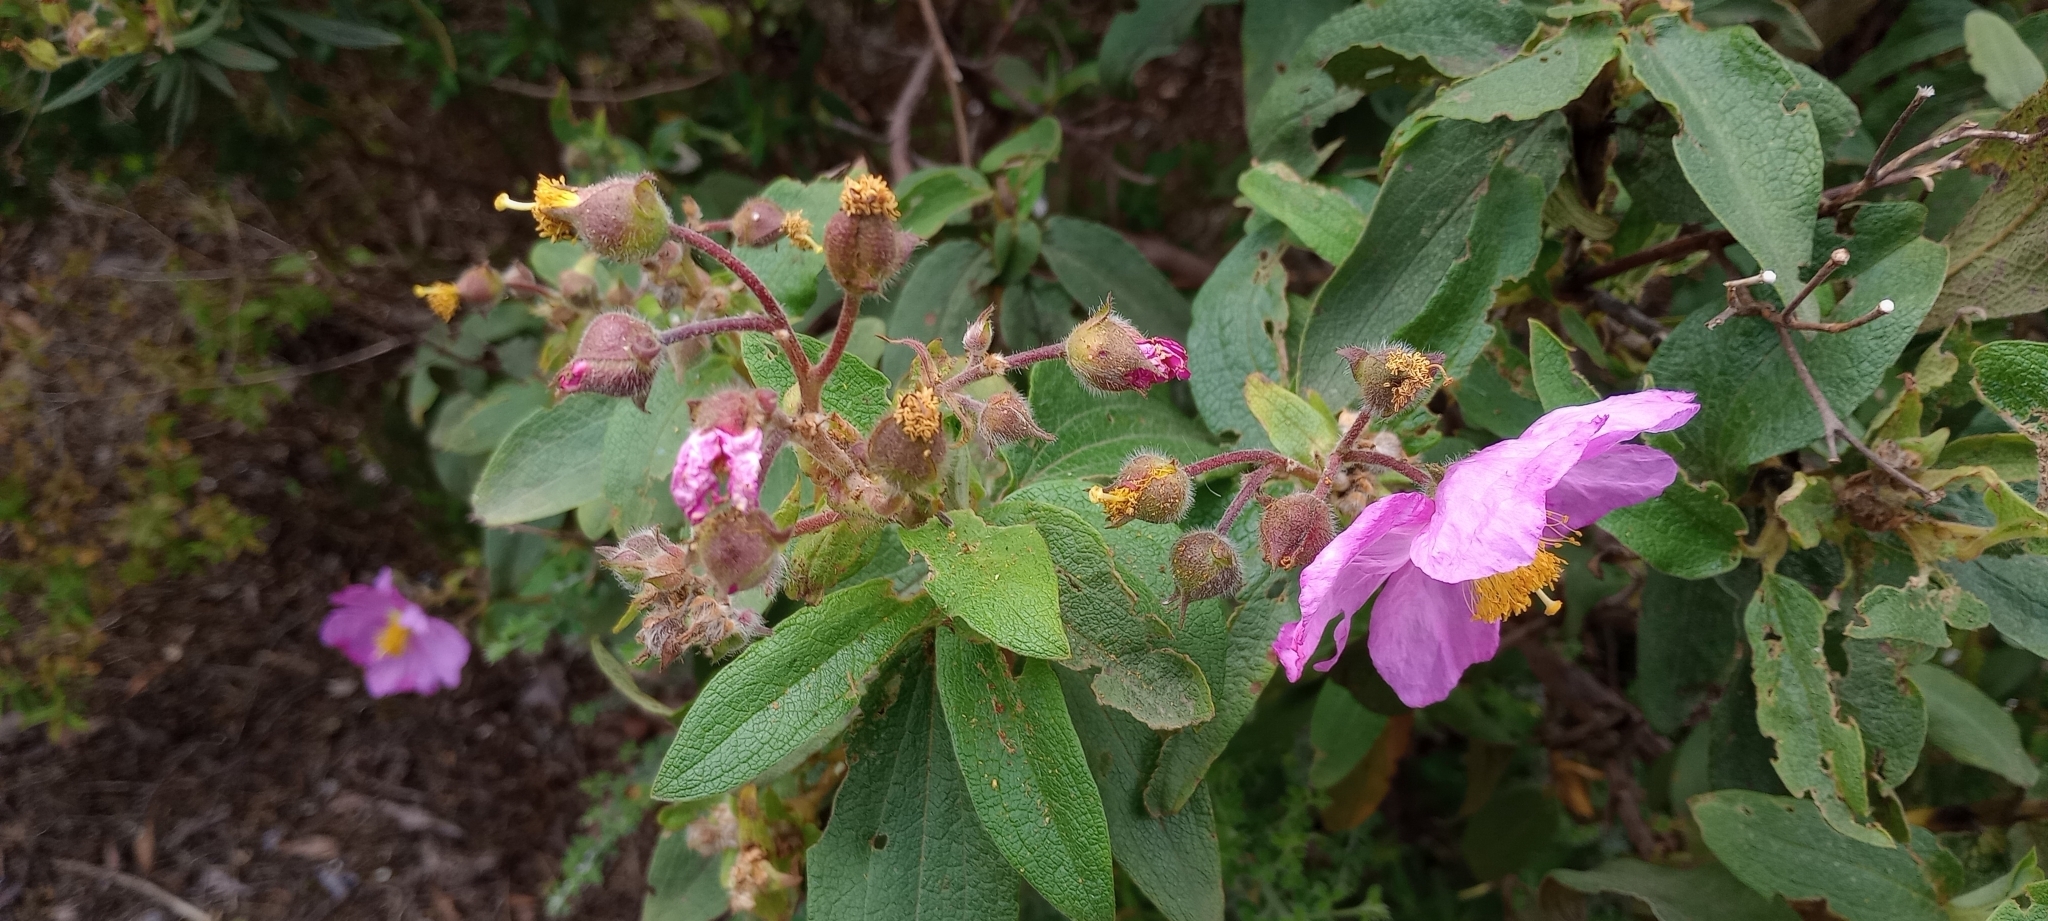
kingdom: Plantae
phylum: Tracheophyta
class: Magnoliopsida
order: Malvales
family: Cistaceae
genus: Cistus
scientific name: Cistus symphytifolius
